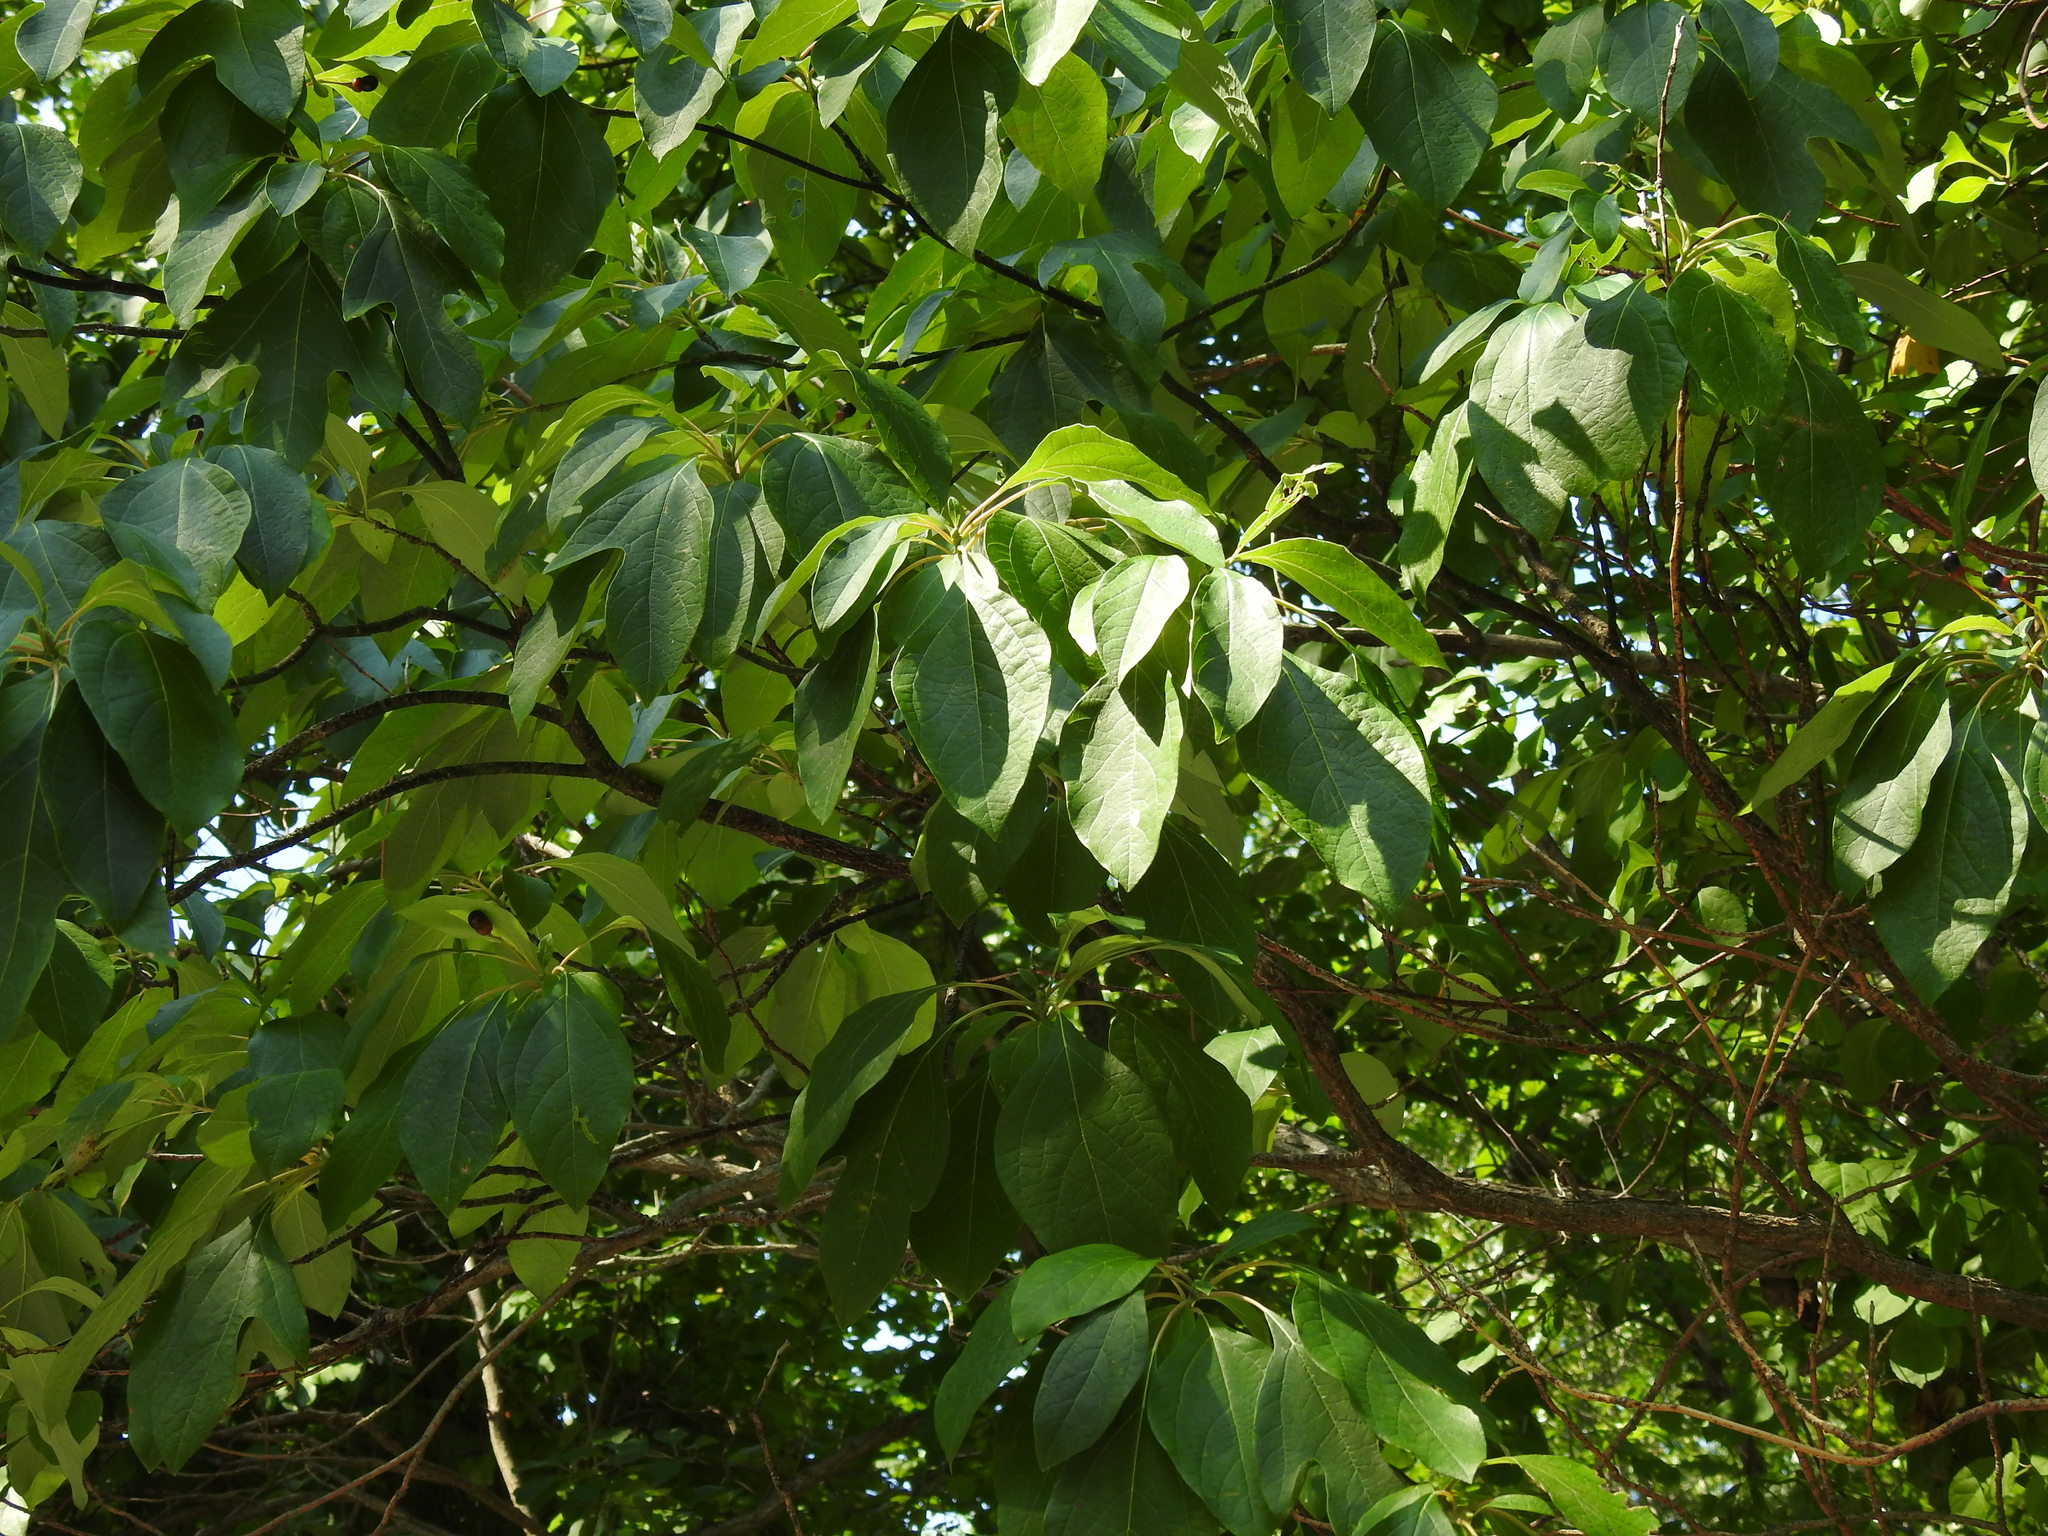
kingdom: Plantae
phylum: Tracheophyta
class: Magnoliopsida
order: Laurales
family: Lauraceae
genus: Sassafras
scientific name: Sassafras albidum
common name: Sassafras
